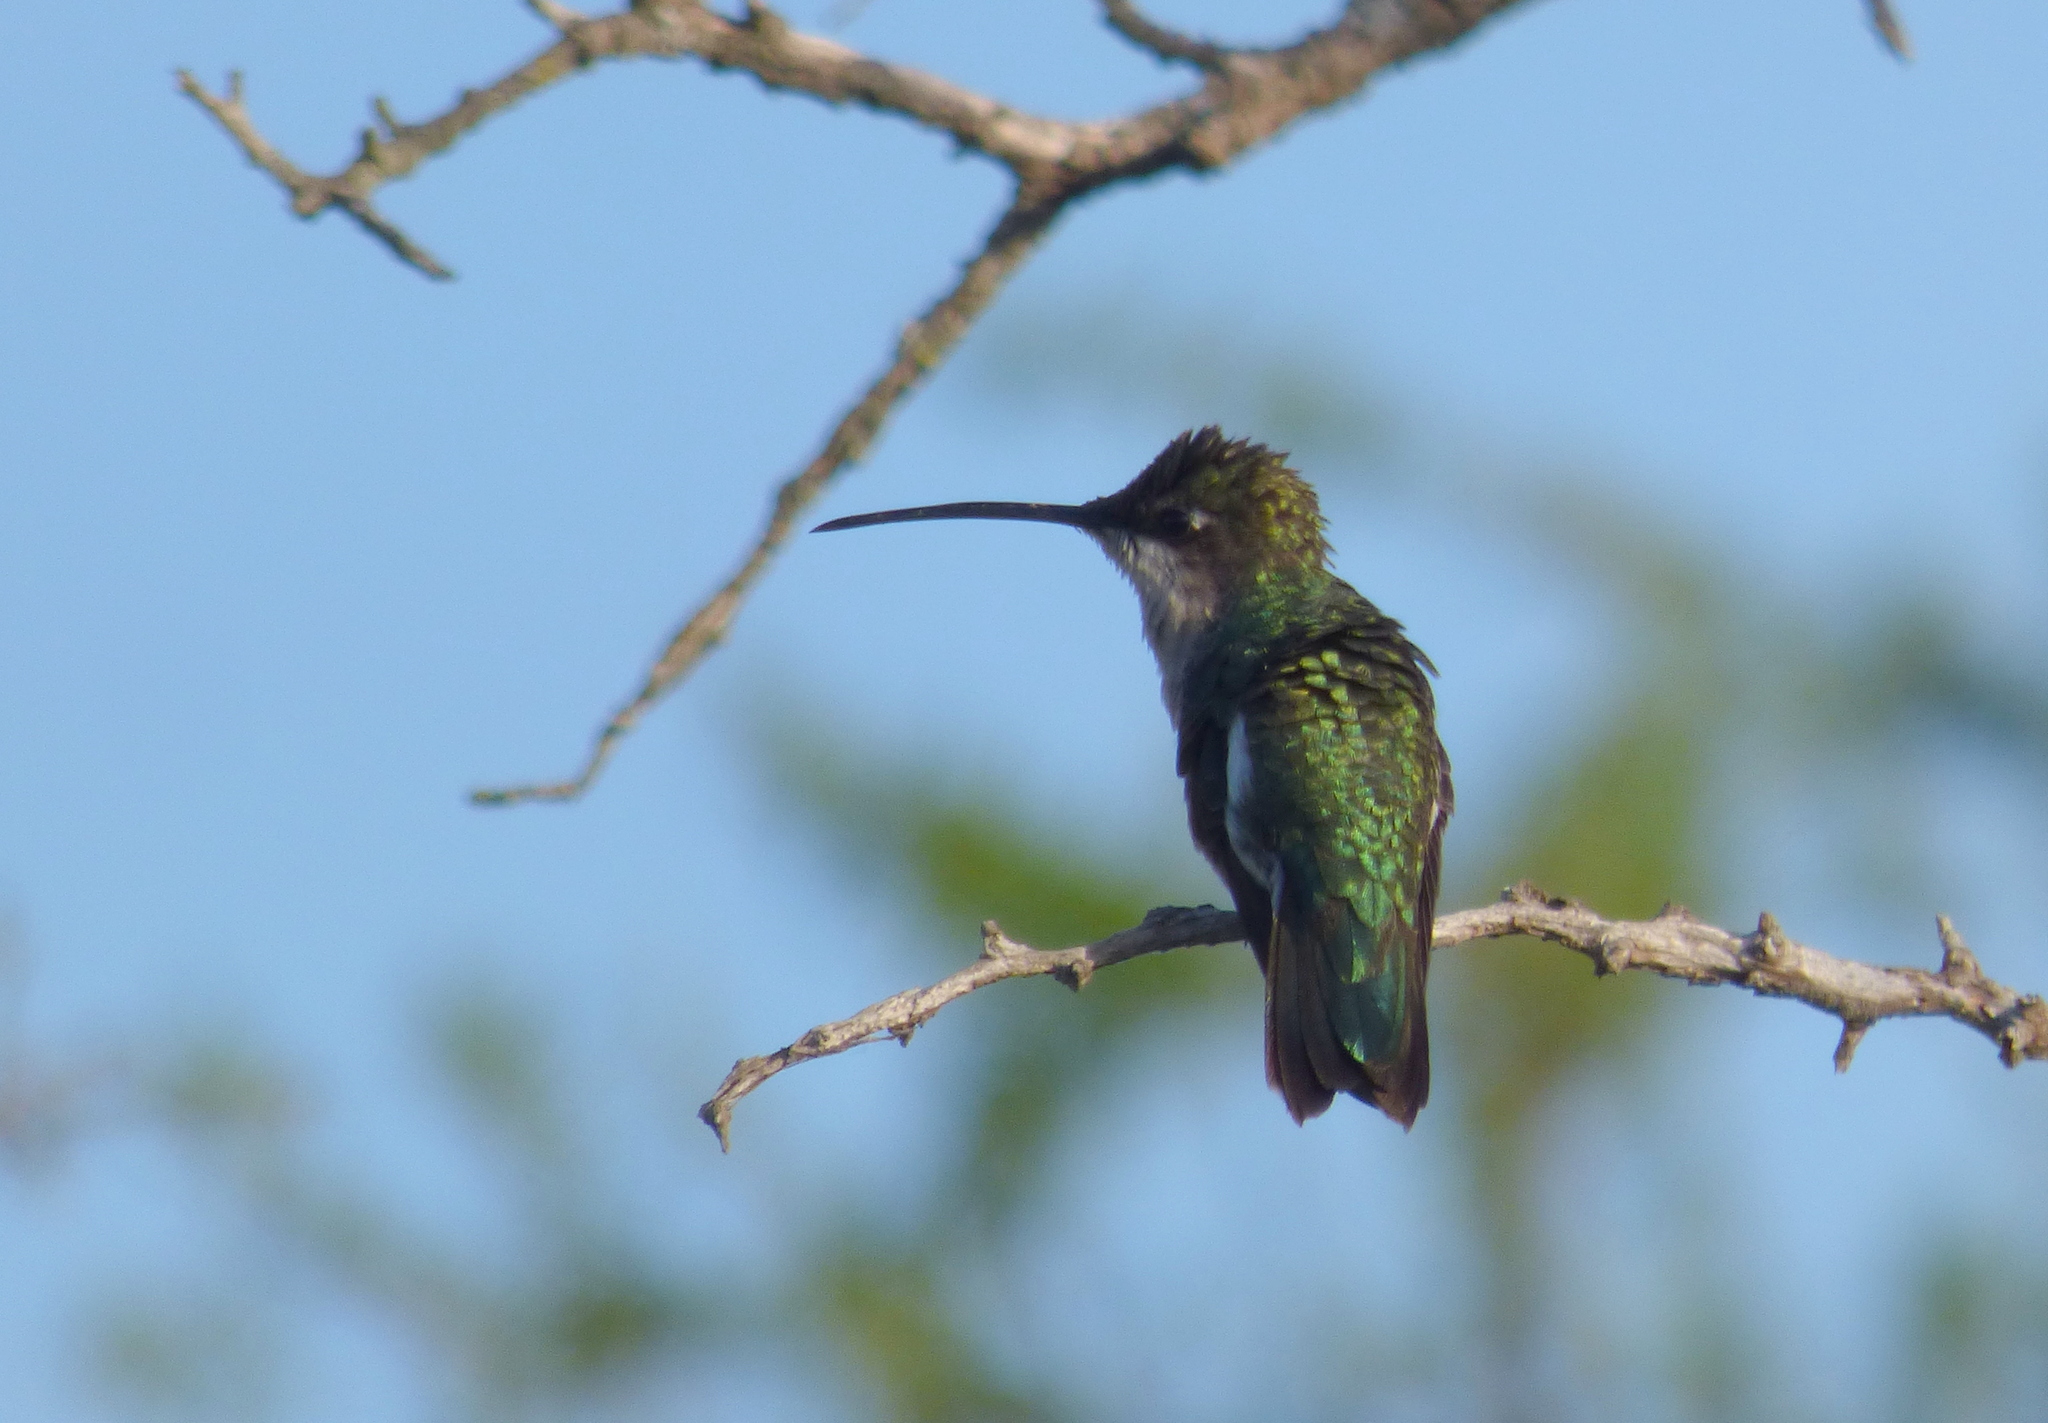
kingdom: Animalia
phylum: Chordata
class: Aves
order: Apodiformes
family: Trochilidae
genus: Heliomaster
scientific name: Heliomaster furcifer
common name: Blue-tufted starthroat
